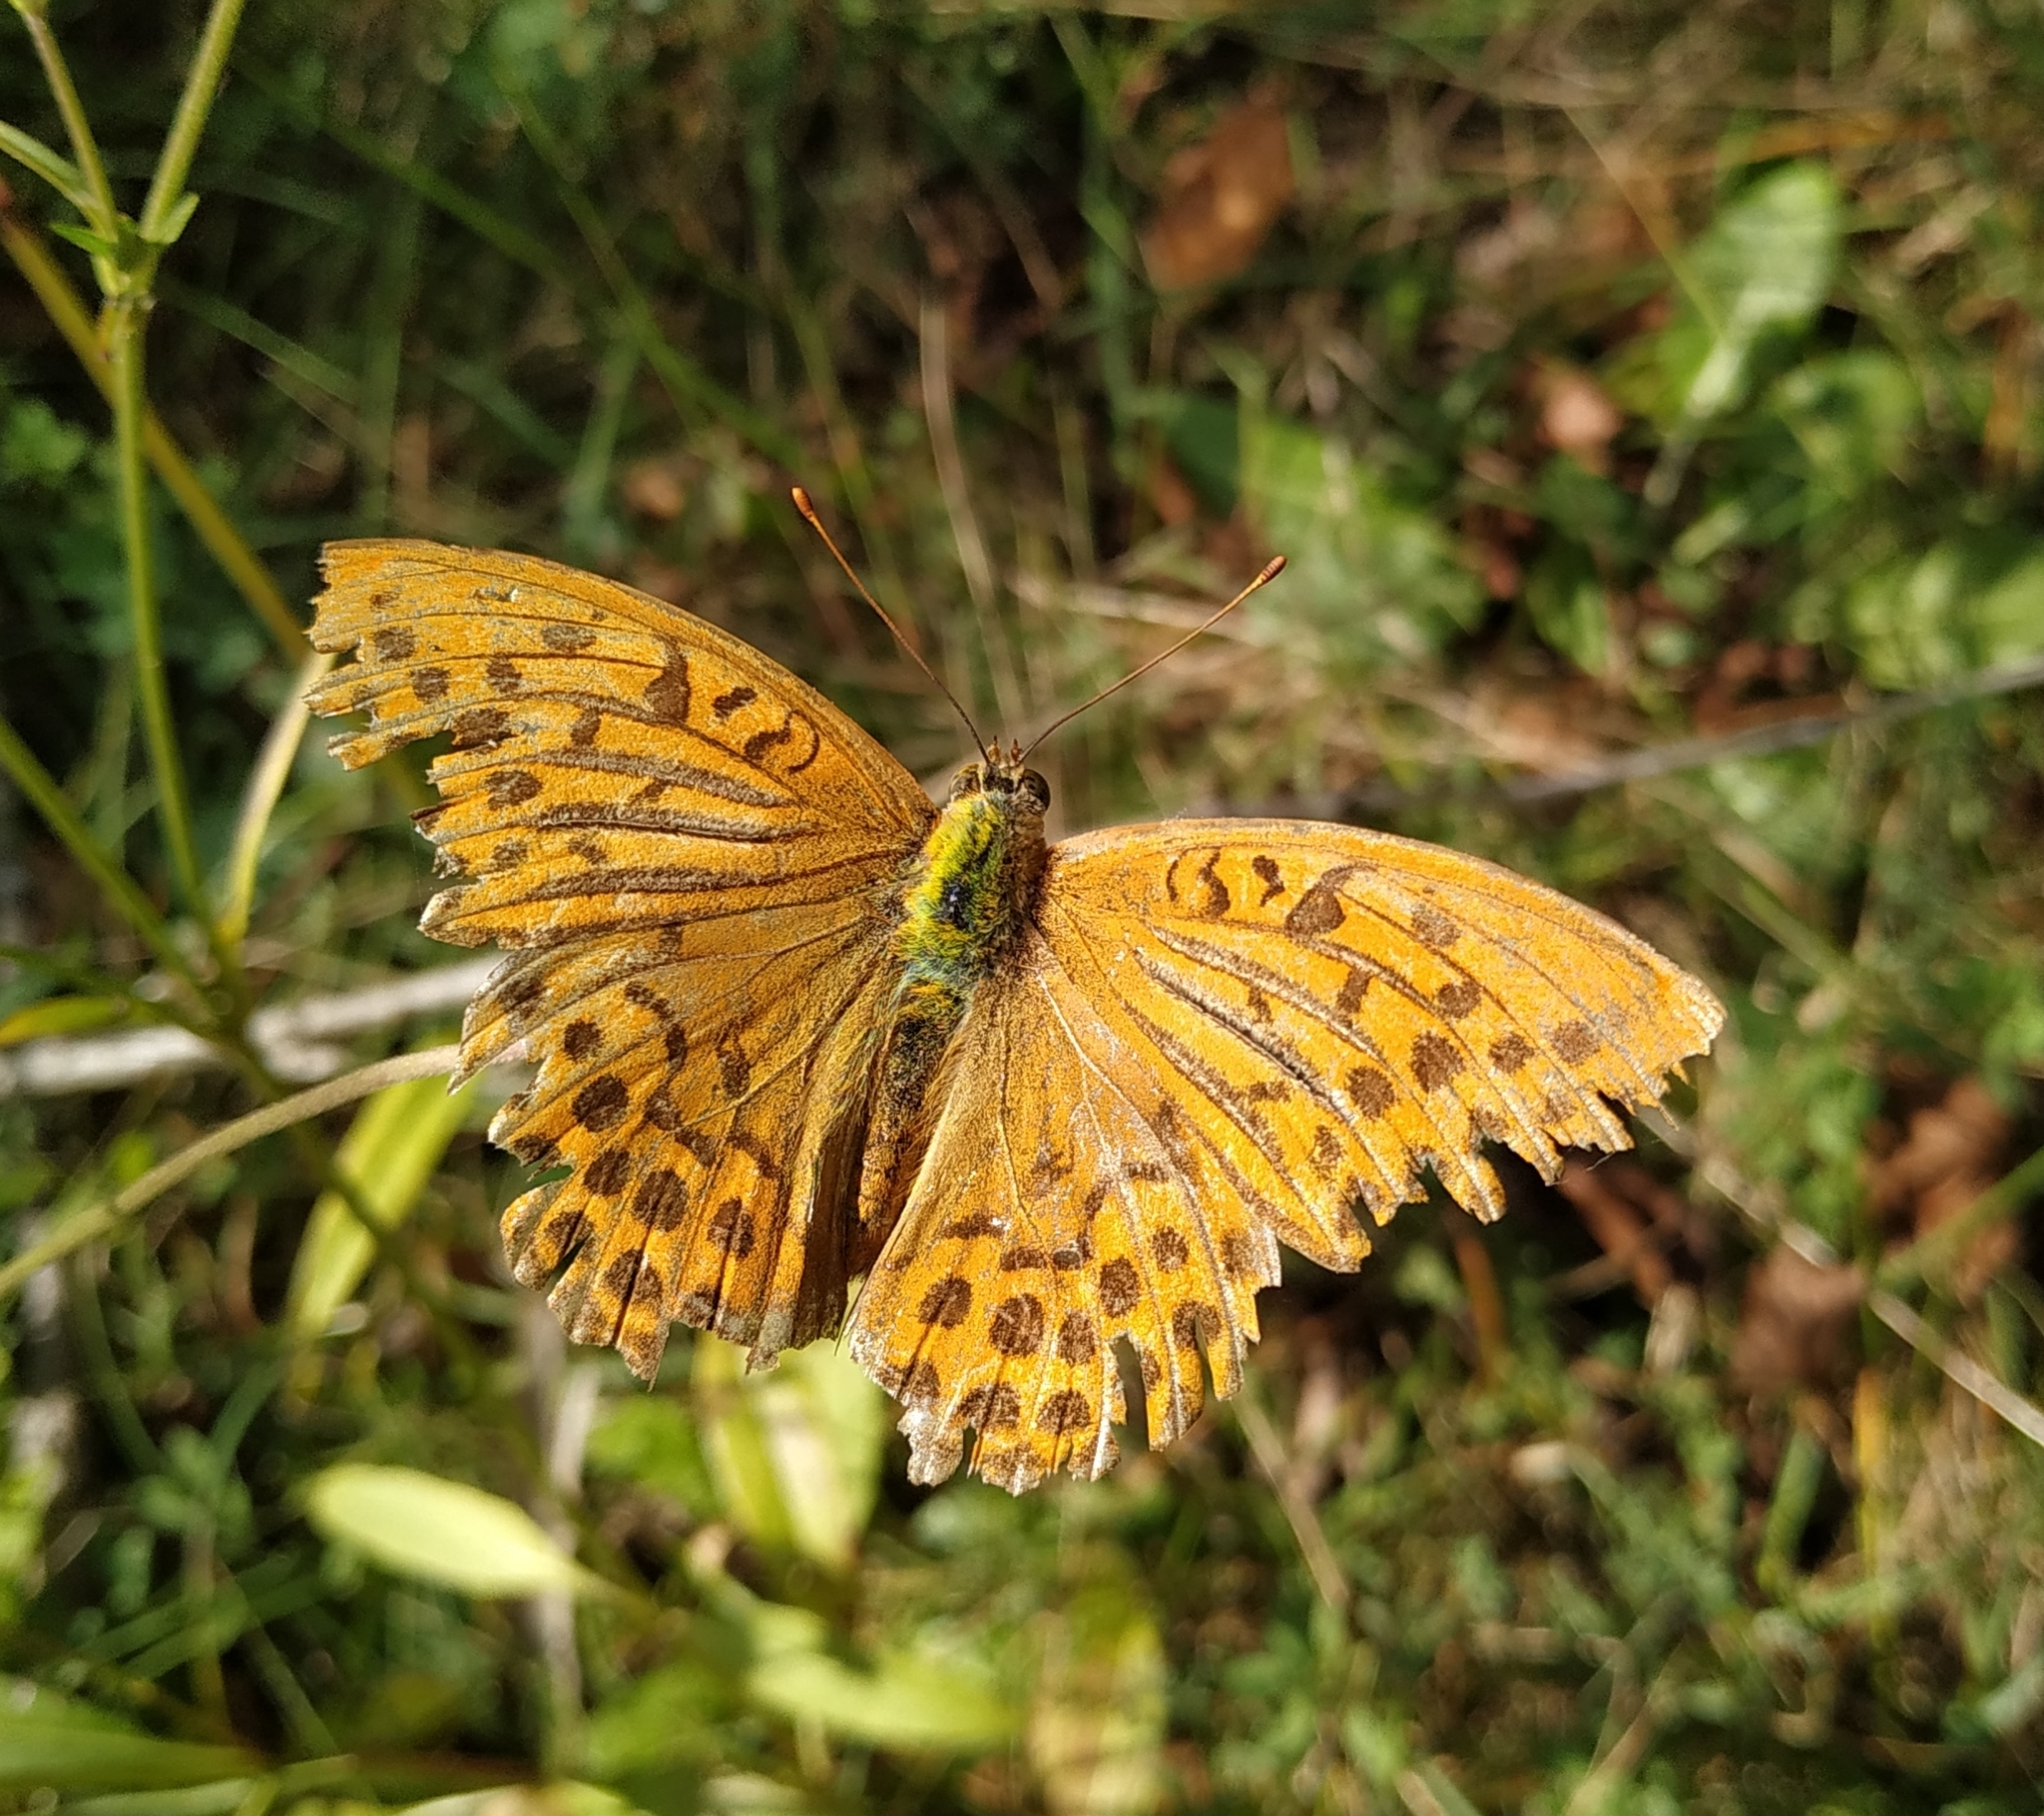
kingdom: Animalia
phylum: Arthropoda
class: Insecta
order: Lepidoptera
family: Nymphalidae
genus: Argynnis
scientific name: Argynnis paphia
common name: Silver-washed fritillary
